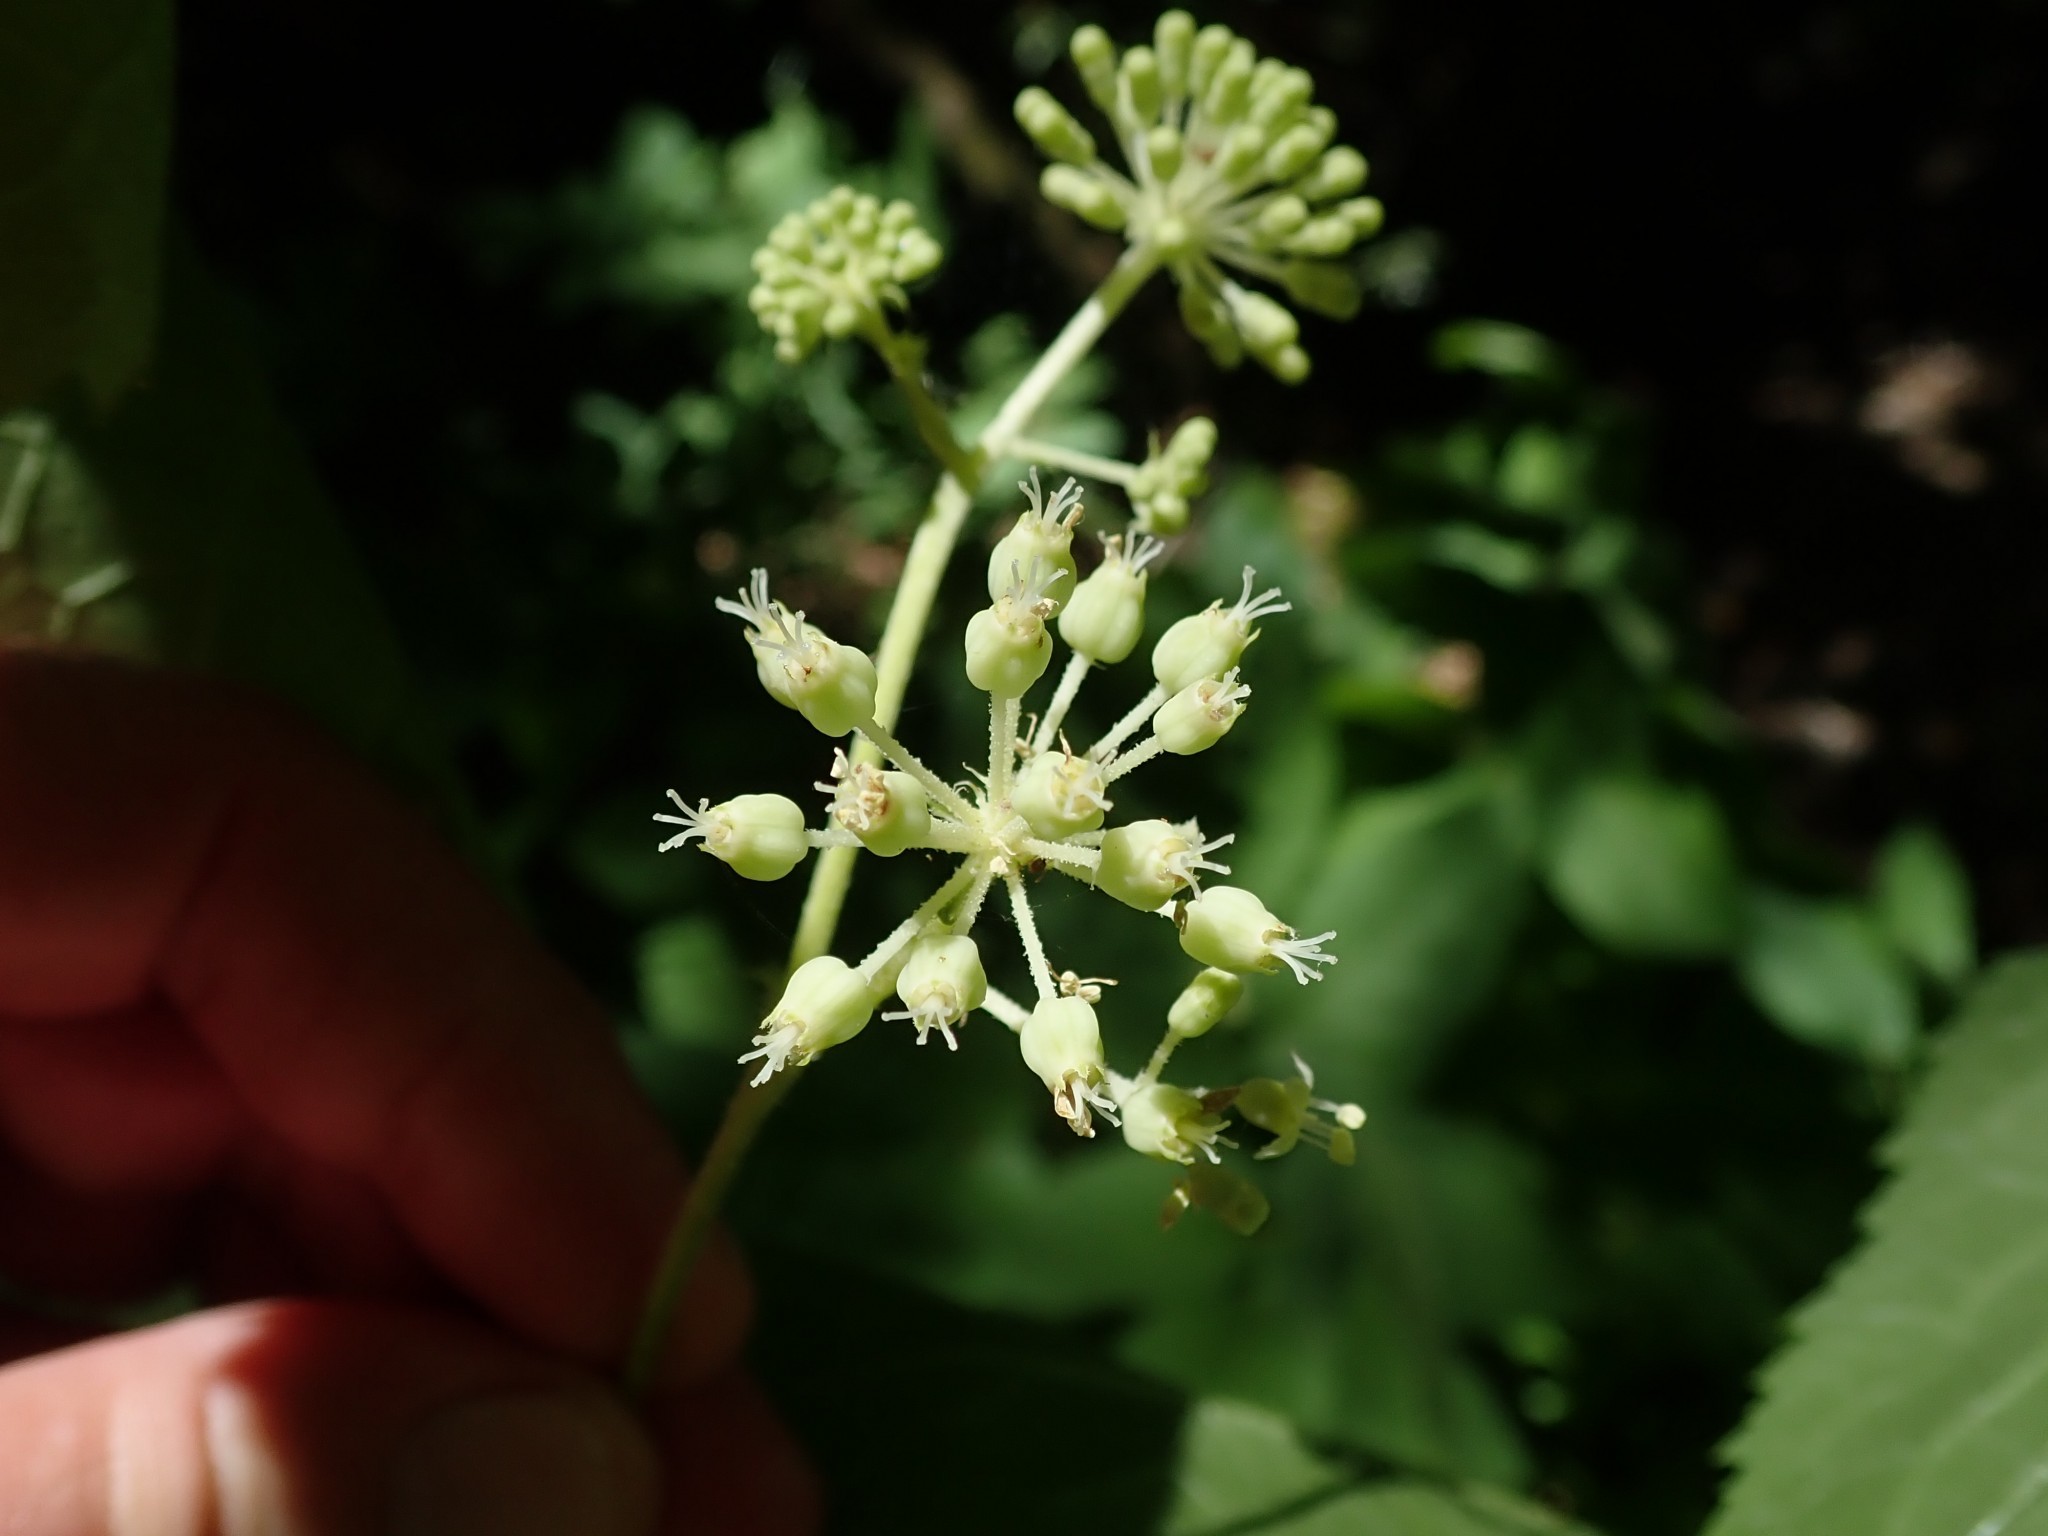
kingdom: Plantae
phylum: Tracheophyta
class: Magnoliopsida
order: Apiales
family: Araliaceae
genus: Aralia
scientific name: Aralia californica
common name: California-ginseng
